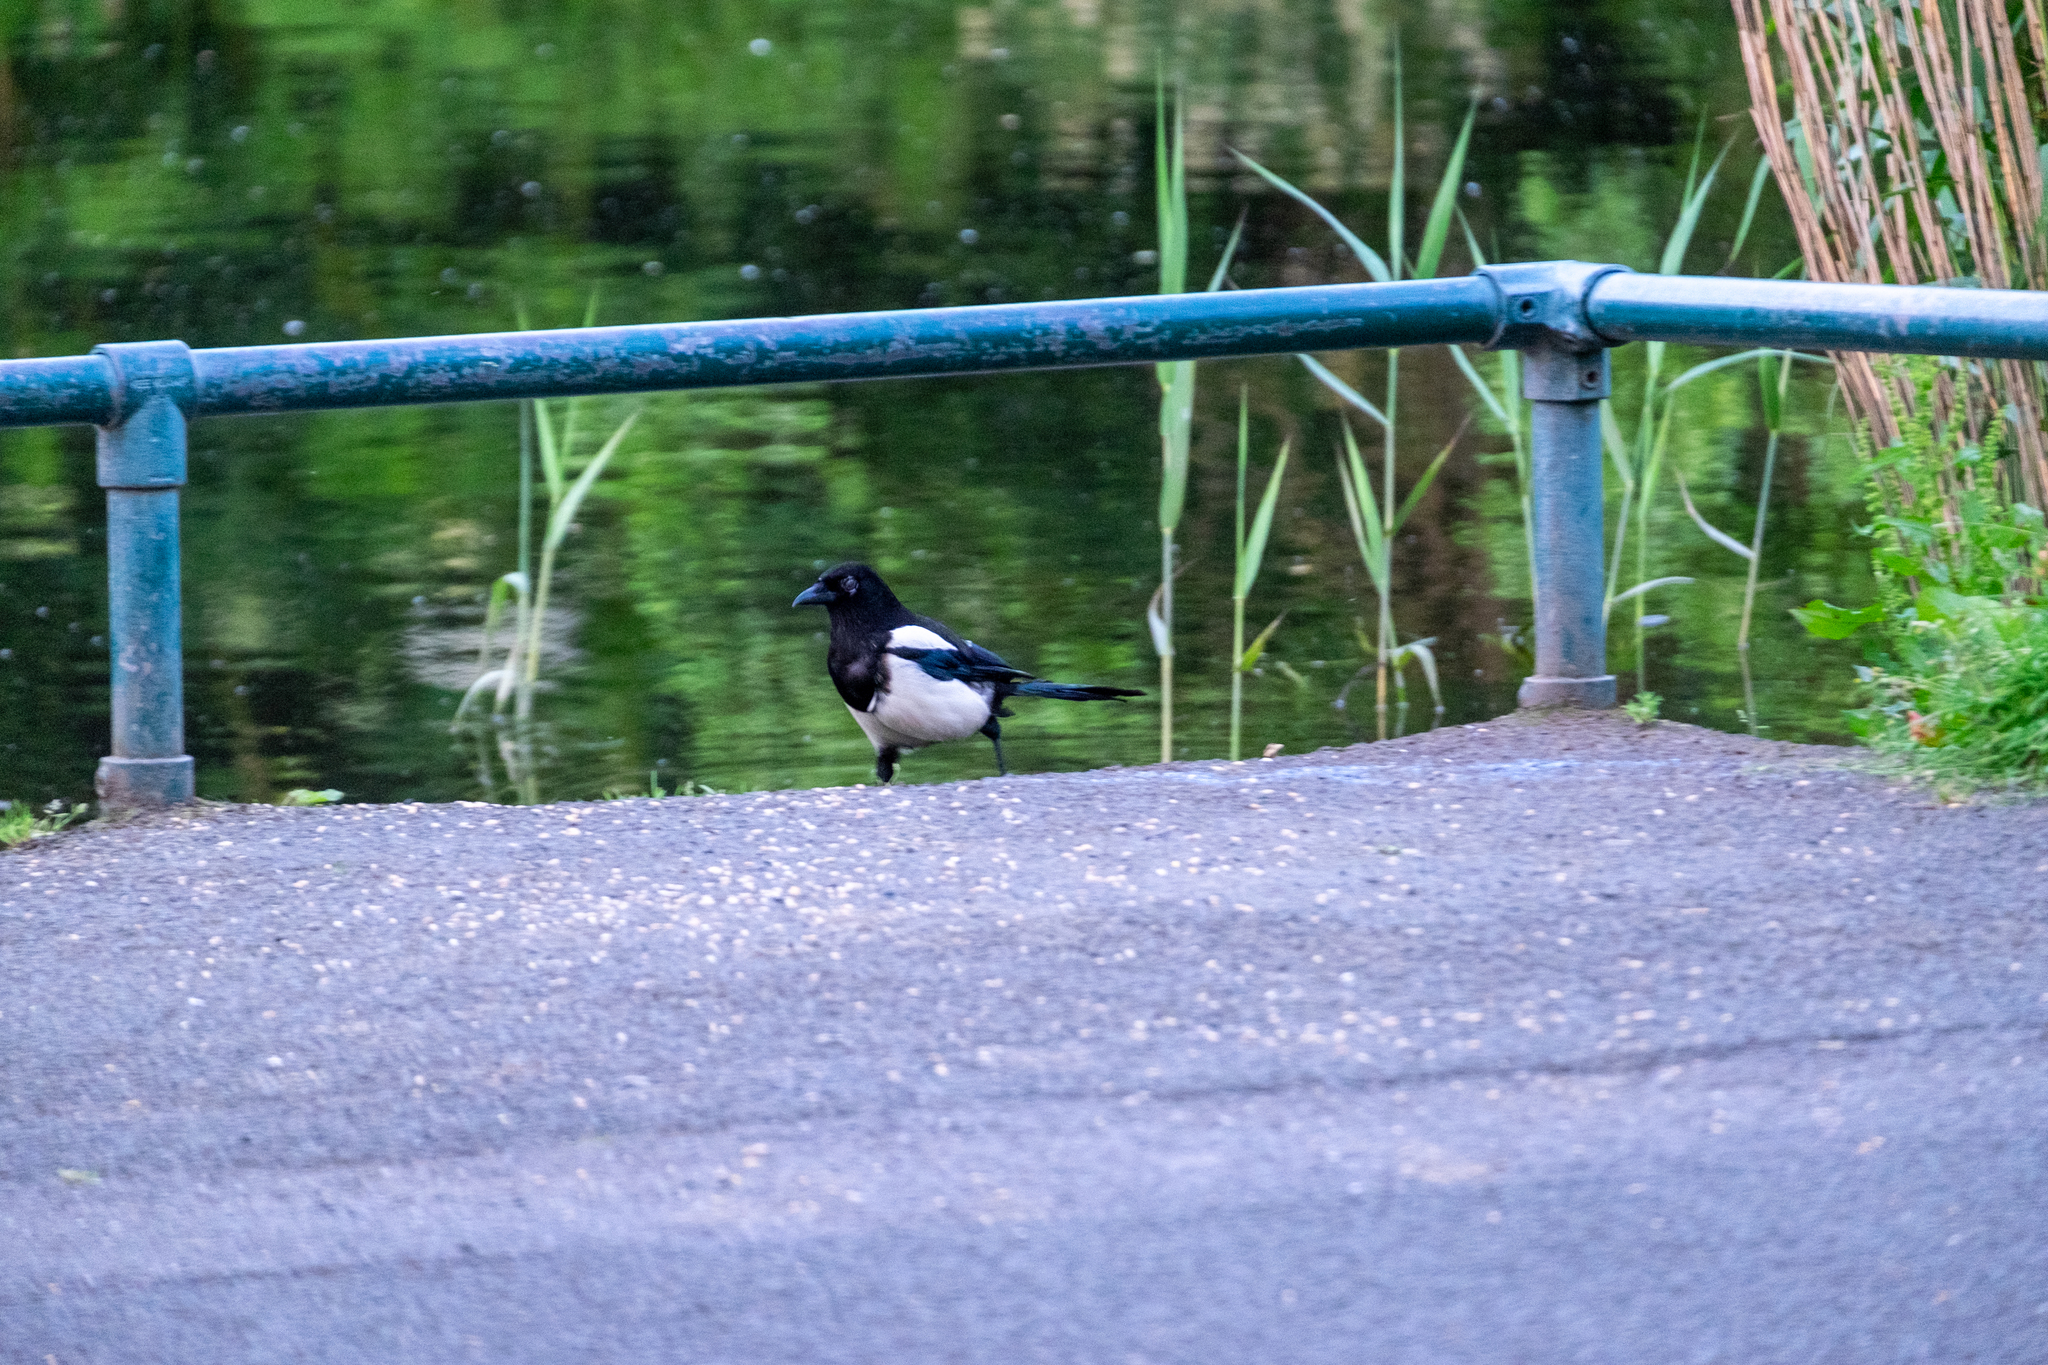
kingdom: Animalia
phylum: Chordata
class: Aves
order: Passeriformes
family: Corvidae
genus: Pica
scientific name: Pica pica
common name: Eurasian magpie
